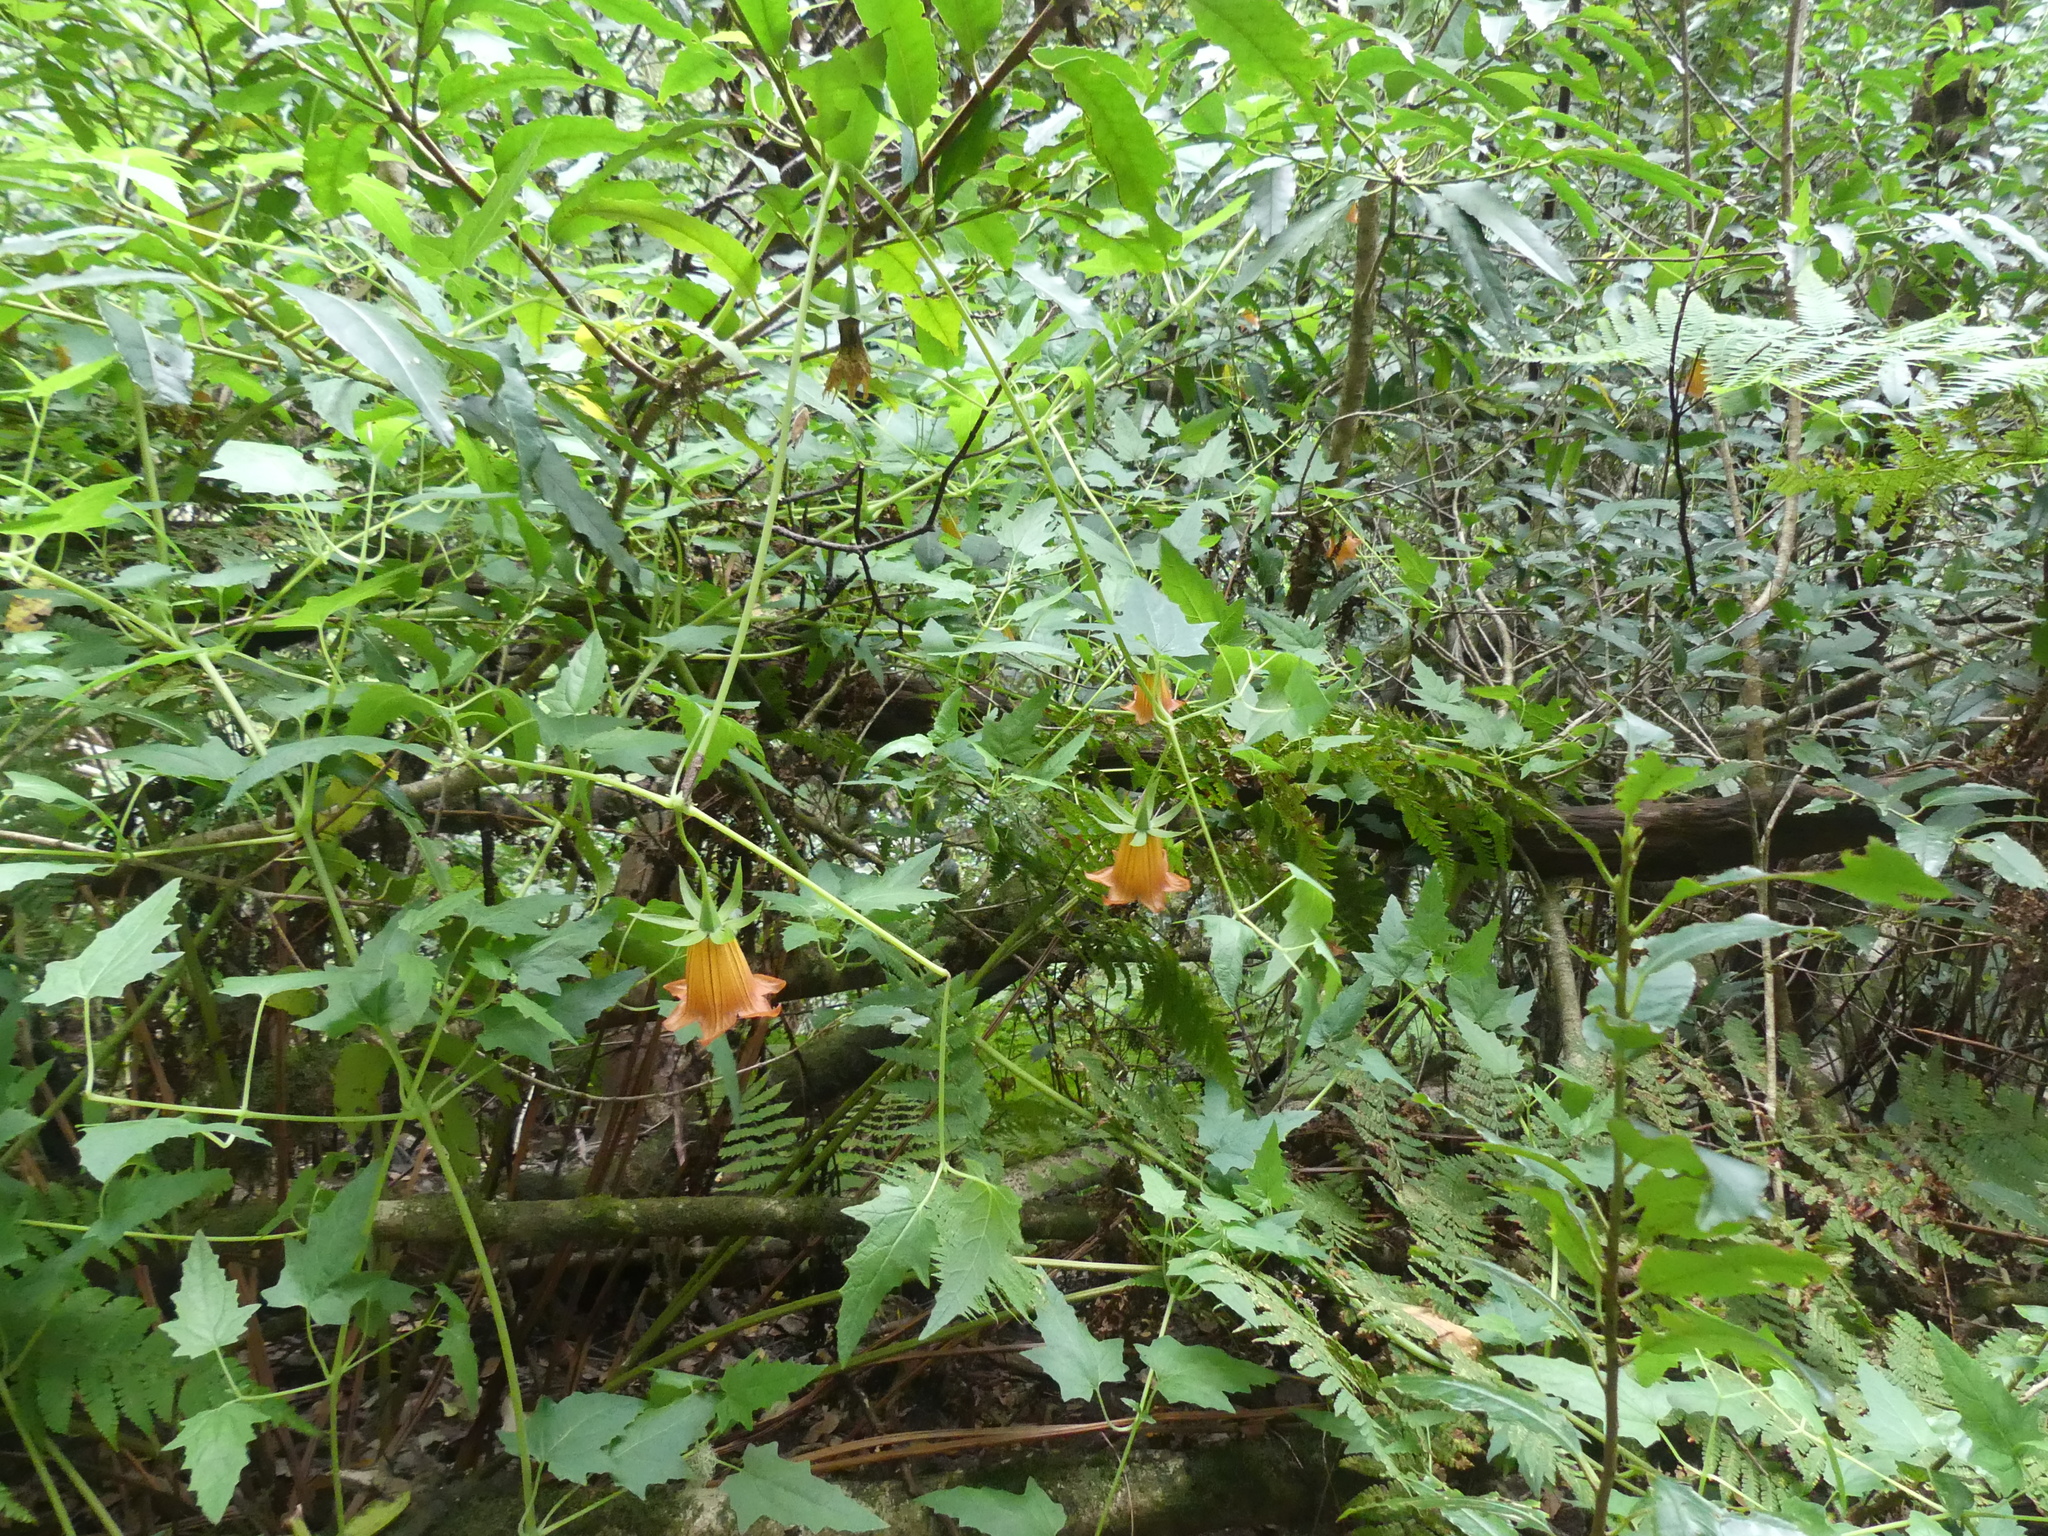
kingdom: Plantae
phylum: Tracheophyta
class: Magnoliopsida
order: Asterales
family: Campanulaceae
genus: Canarina
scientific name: Canarina canariensis
